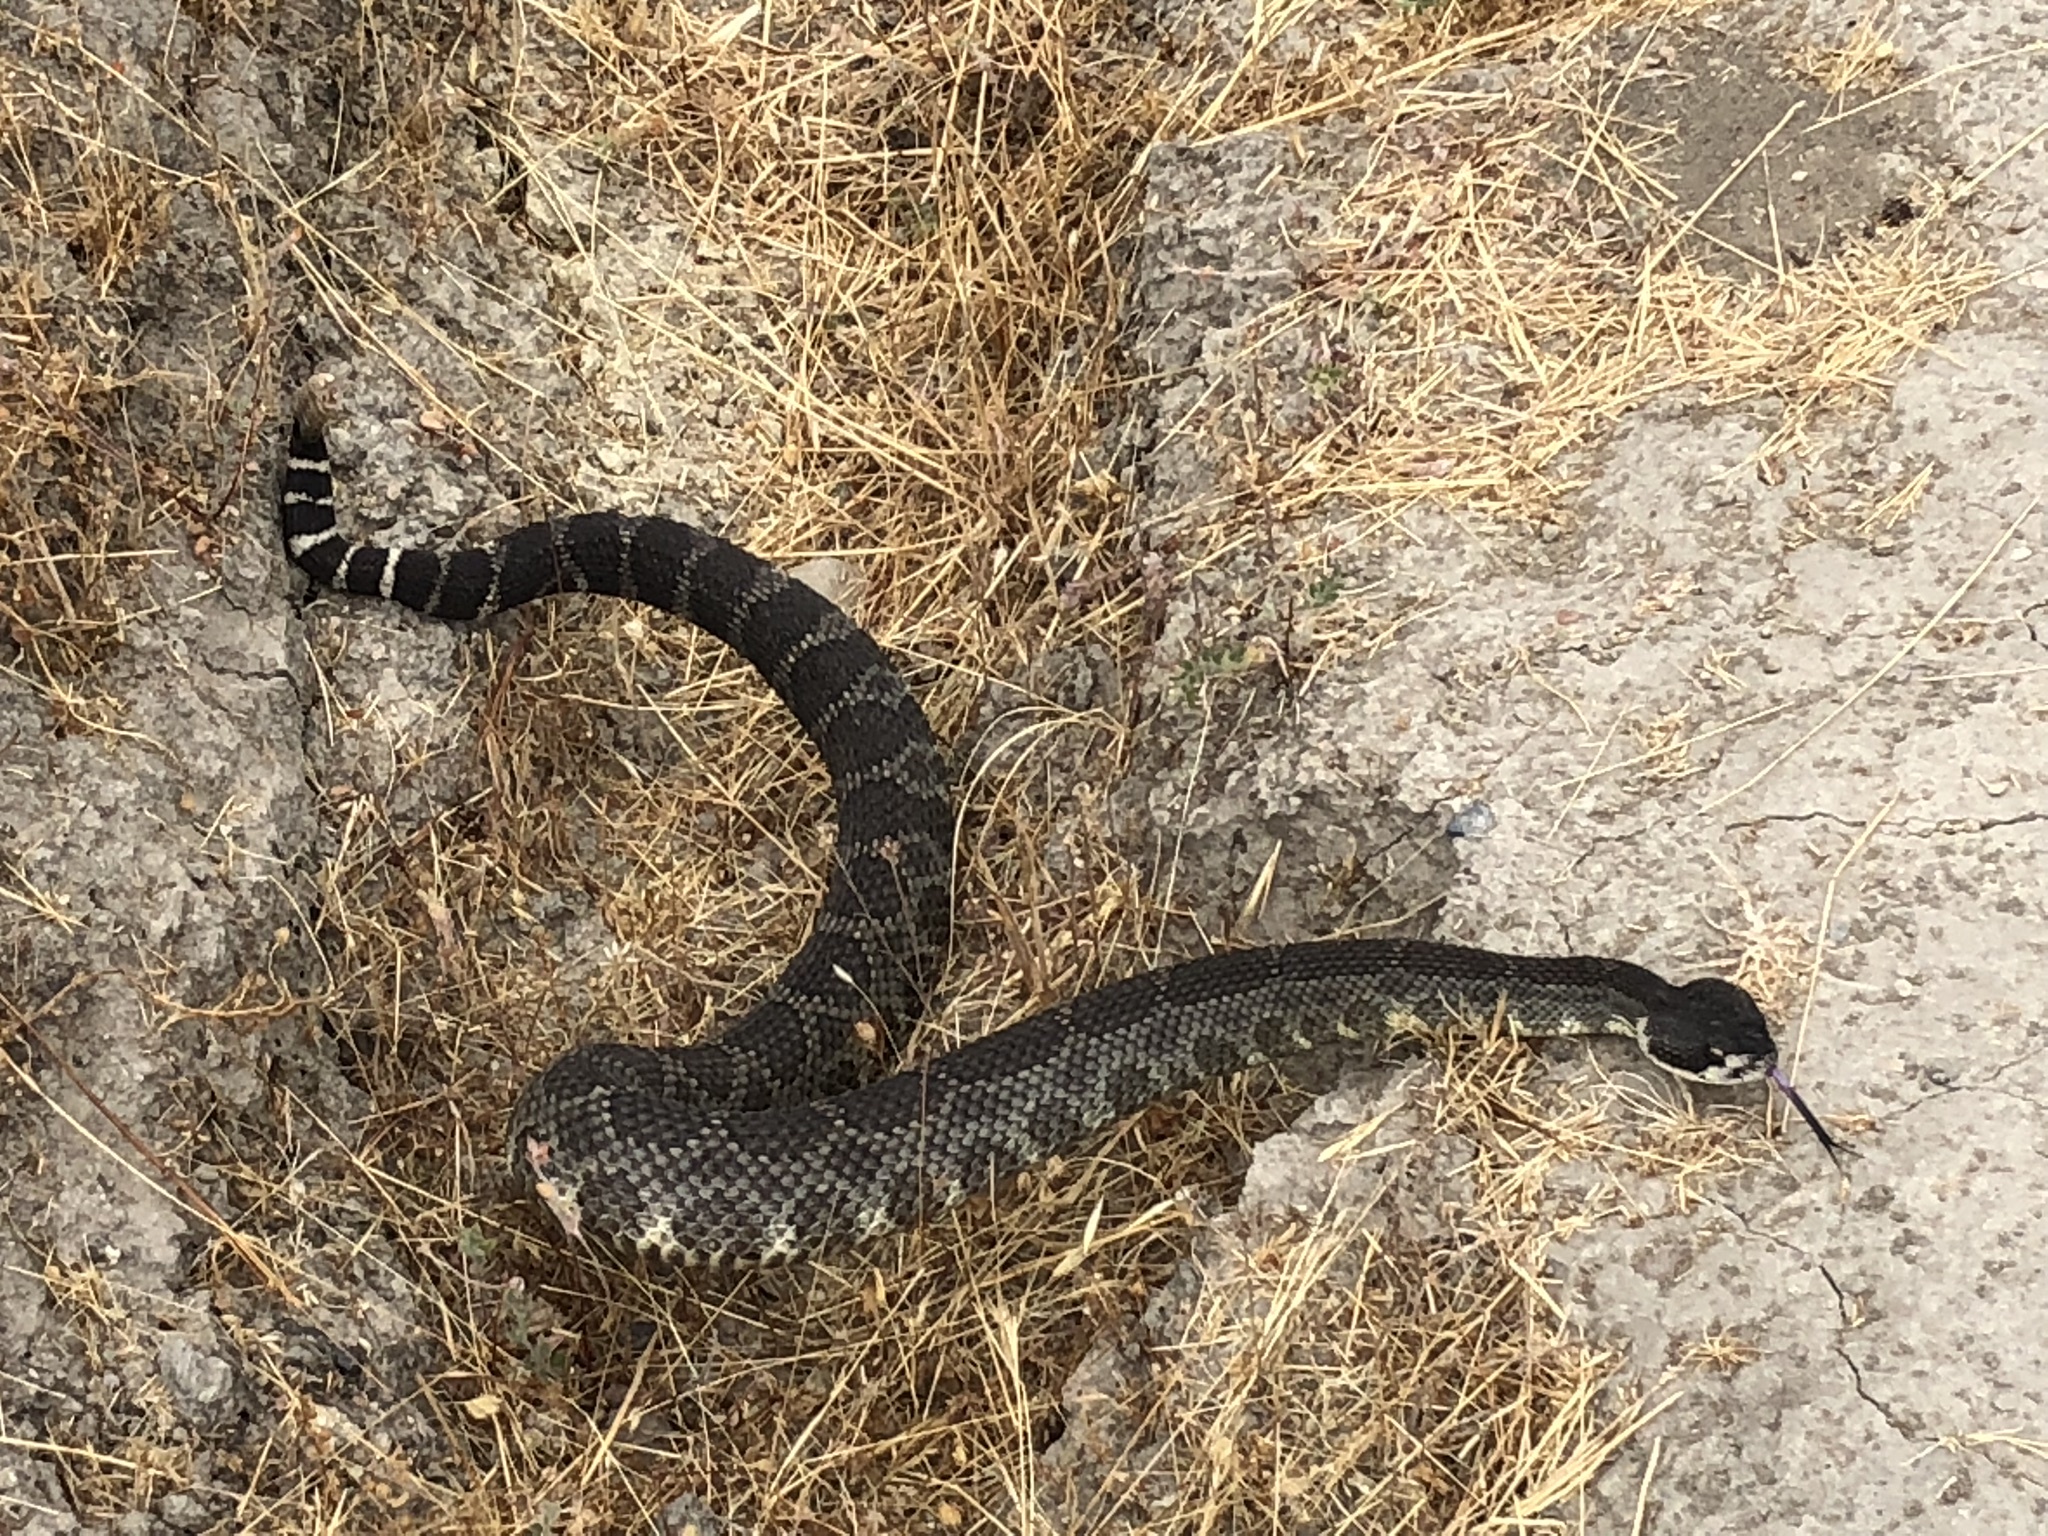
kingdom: Animalia
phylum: Chordata
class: Squamata
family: Viperidae
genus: Crotalus
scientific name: Crotalus oreganus
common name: Abyssus
